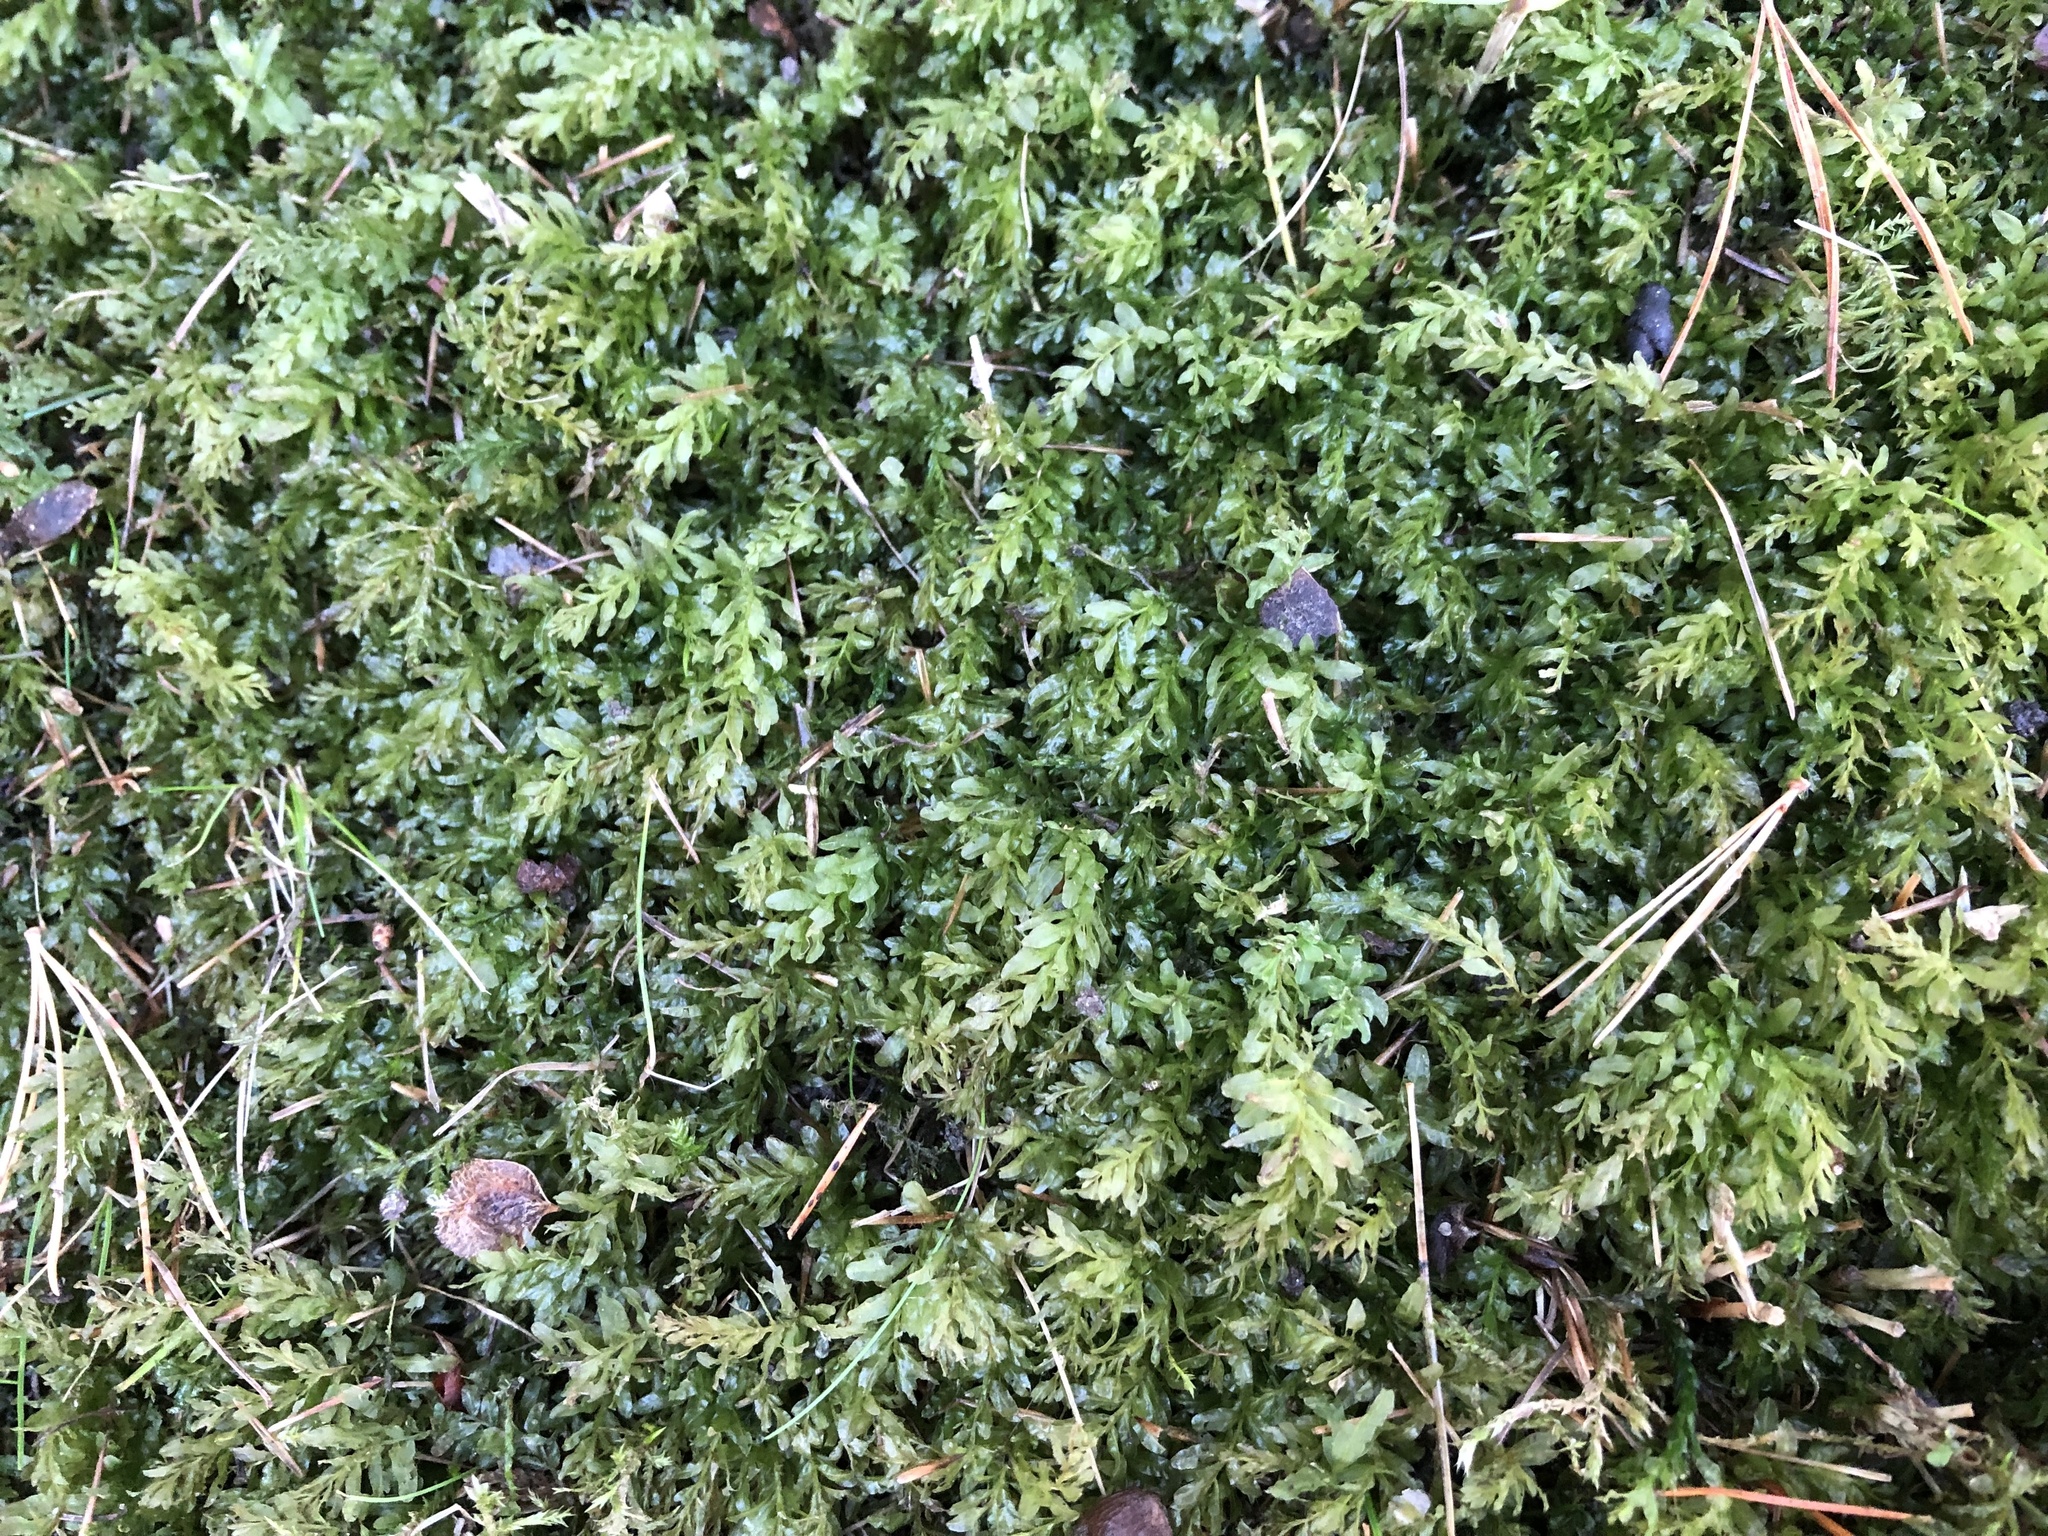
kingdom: Plantae
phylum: Bryophyta
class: Bryopsida
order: Bryales
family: Mniaceae
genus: Plagiomnium
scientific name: Plagiomnium undulatum
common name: Hart's-tongue thyme-moss
